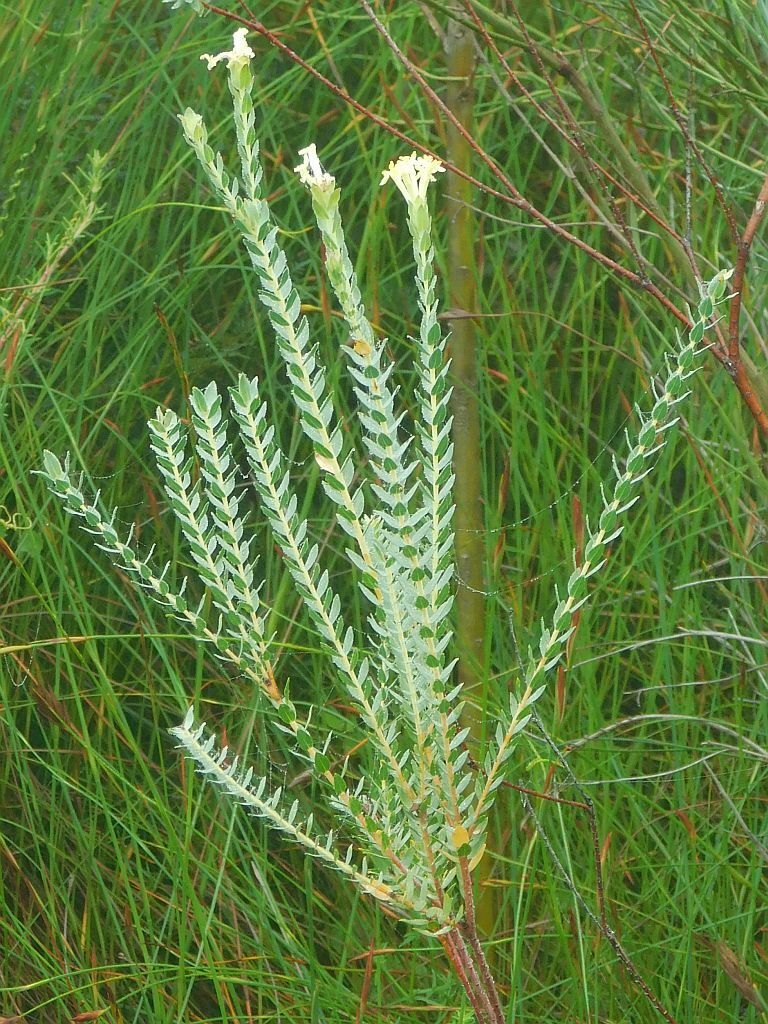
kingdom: Plantae
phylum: Tracheophyta
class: Magnoliopsida
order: Malvales
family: Thymelaeaceae
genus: Gnidia
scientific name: Gnidia oppositifolia
